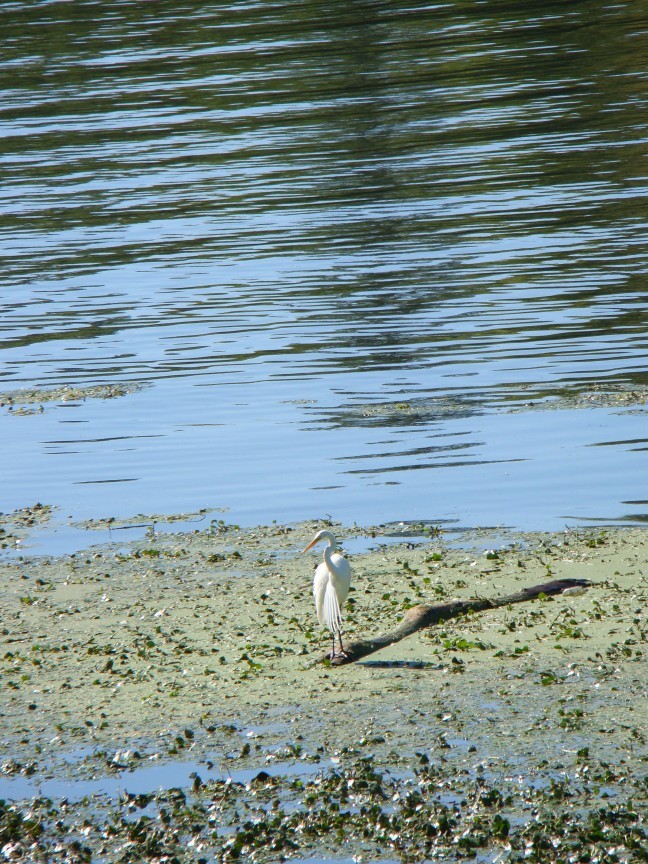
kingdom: Animalia
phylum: Chordata
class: Aves
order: Pelecaniformes
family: Ardeidae
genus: Ardea
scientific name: Ardea alba
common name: Great egret
